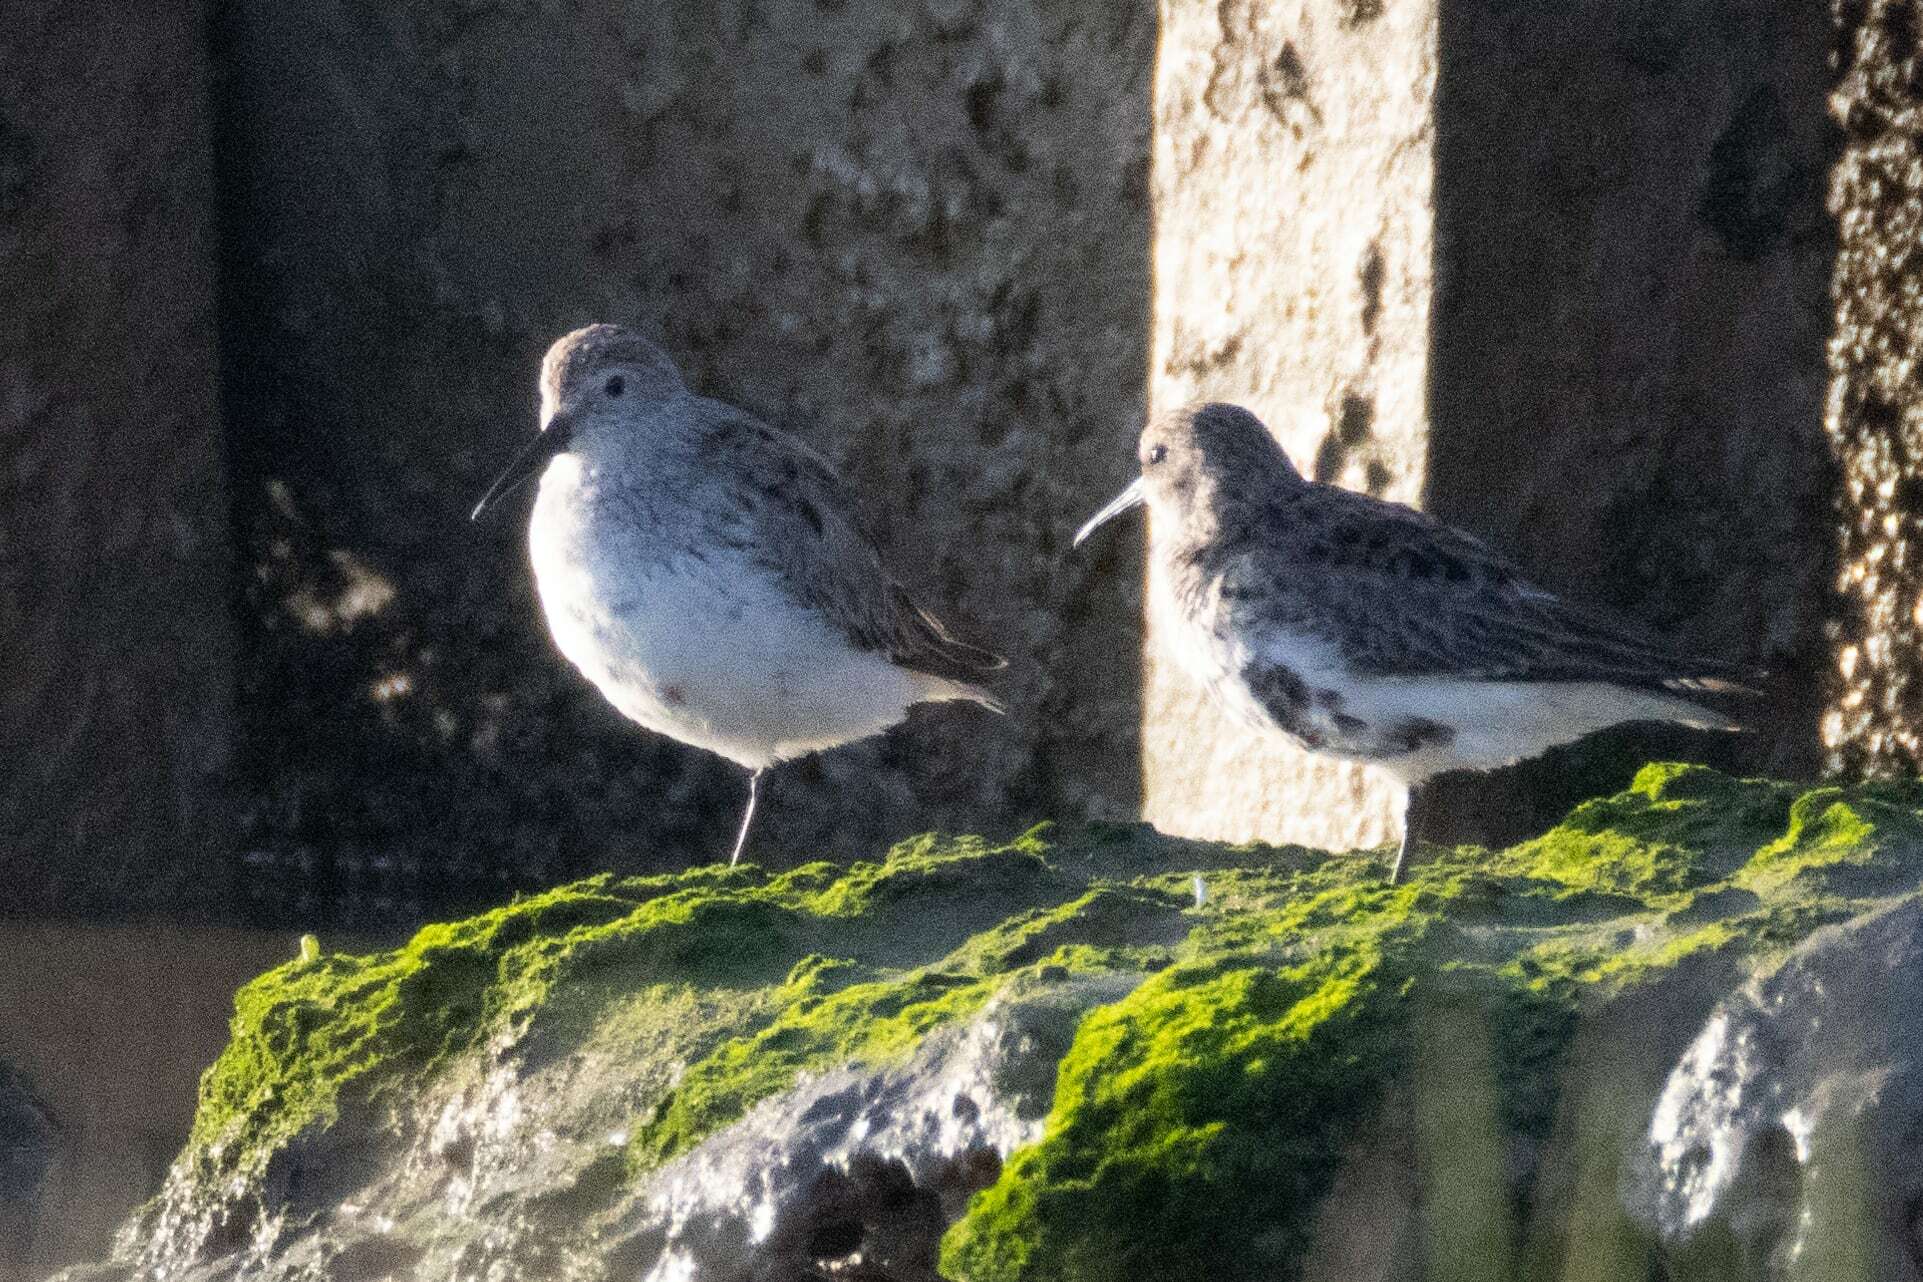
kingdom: Animalia
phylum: Chordata
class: Aves
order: Charadriiformes
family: Scolopacidae
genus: Calidris
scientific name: Calidris alpina
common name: Dunlin
